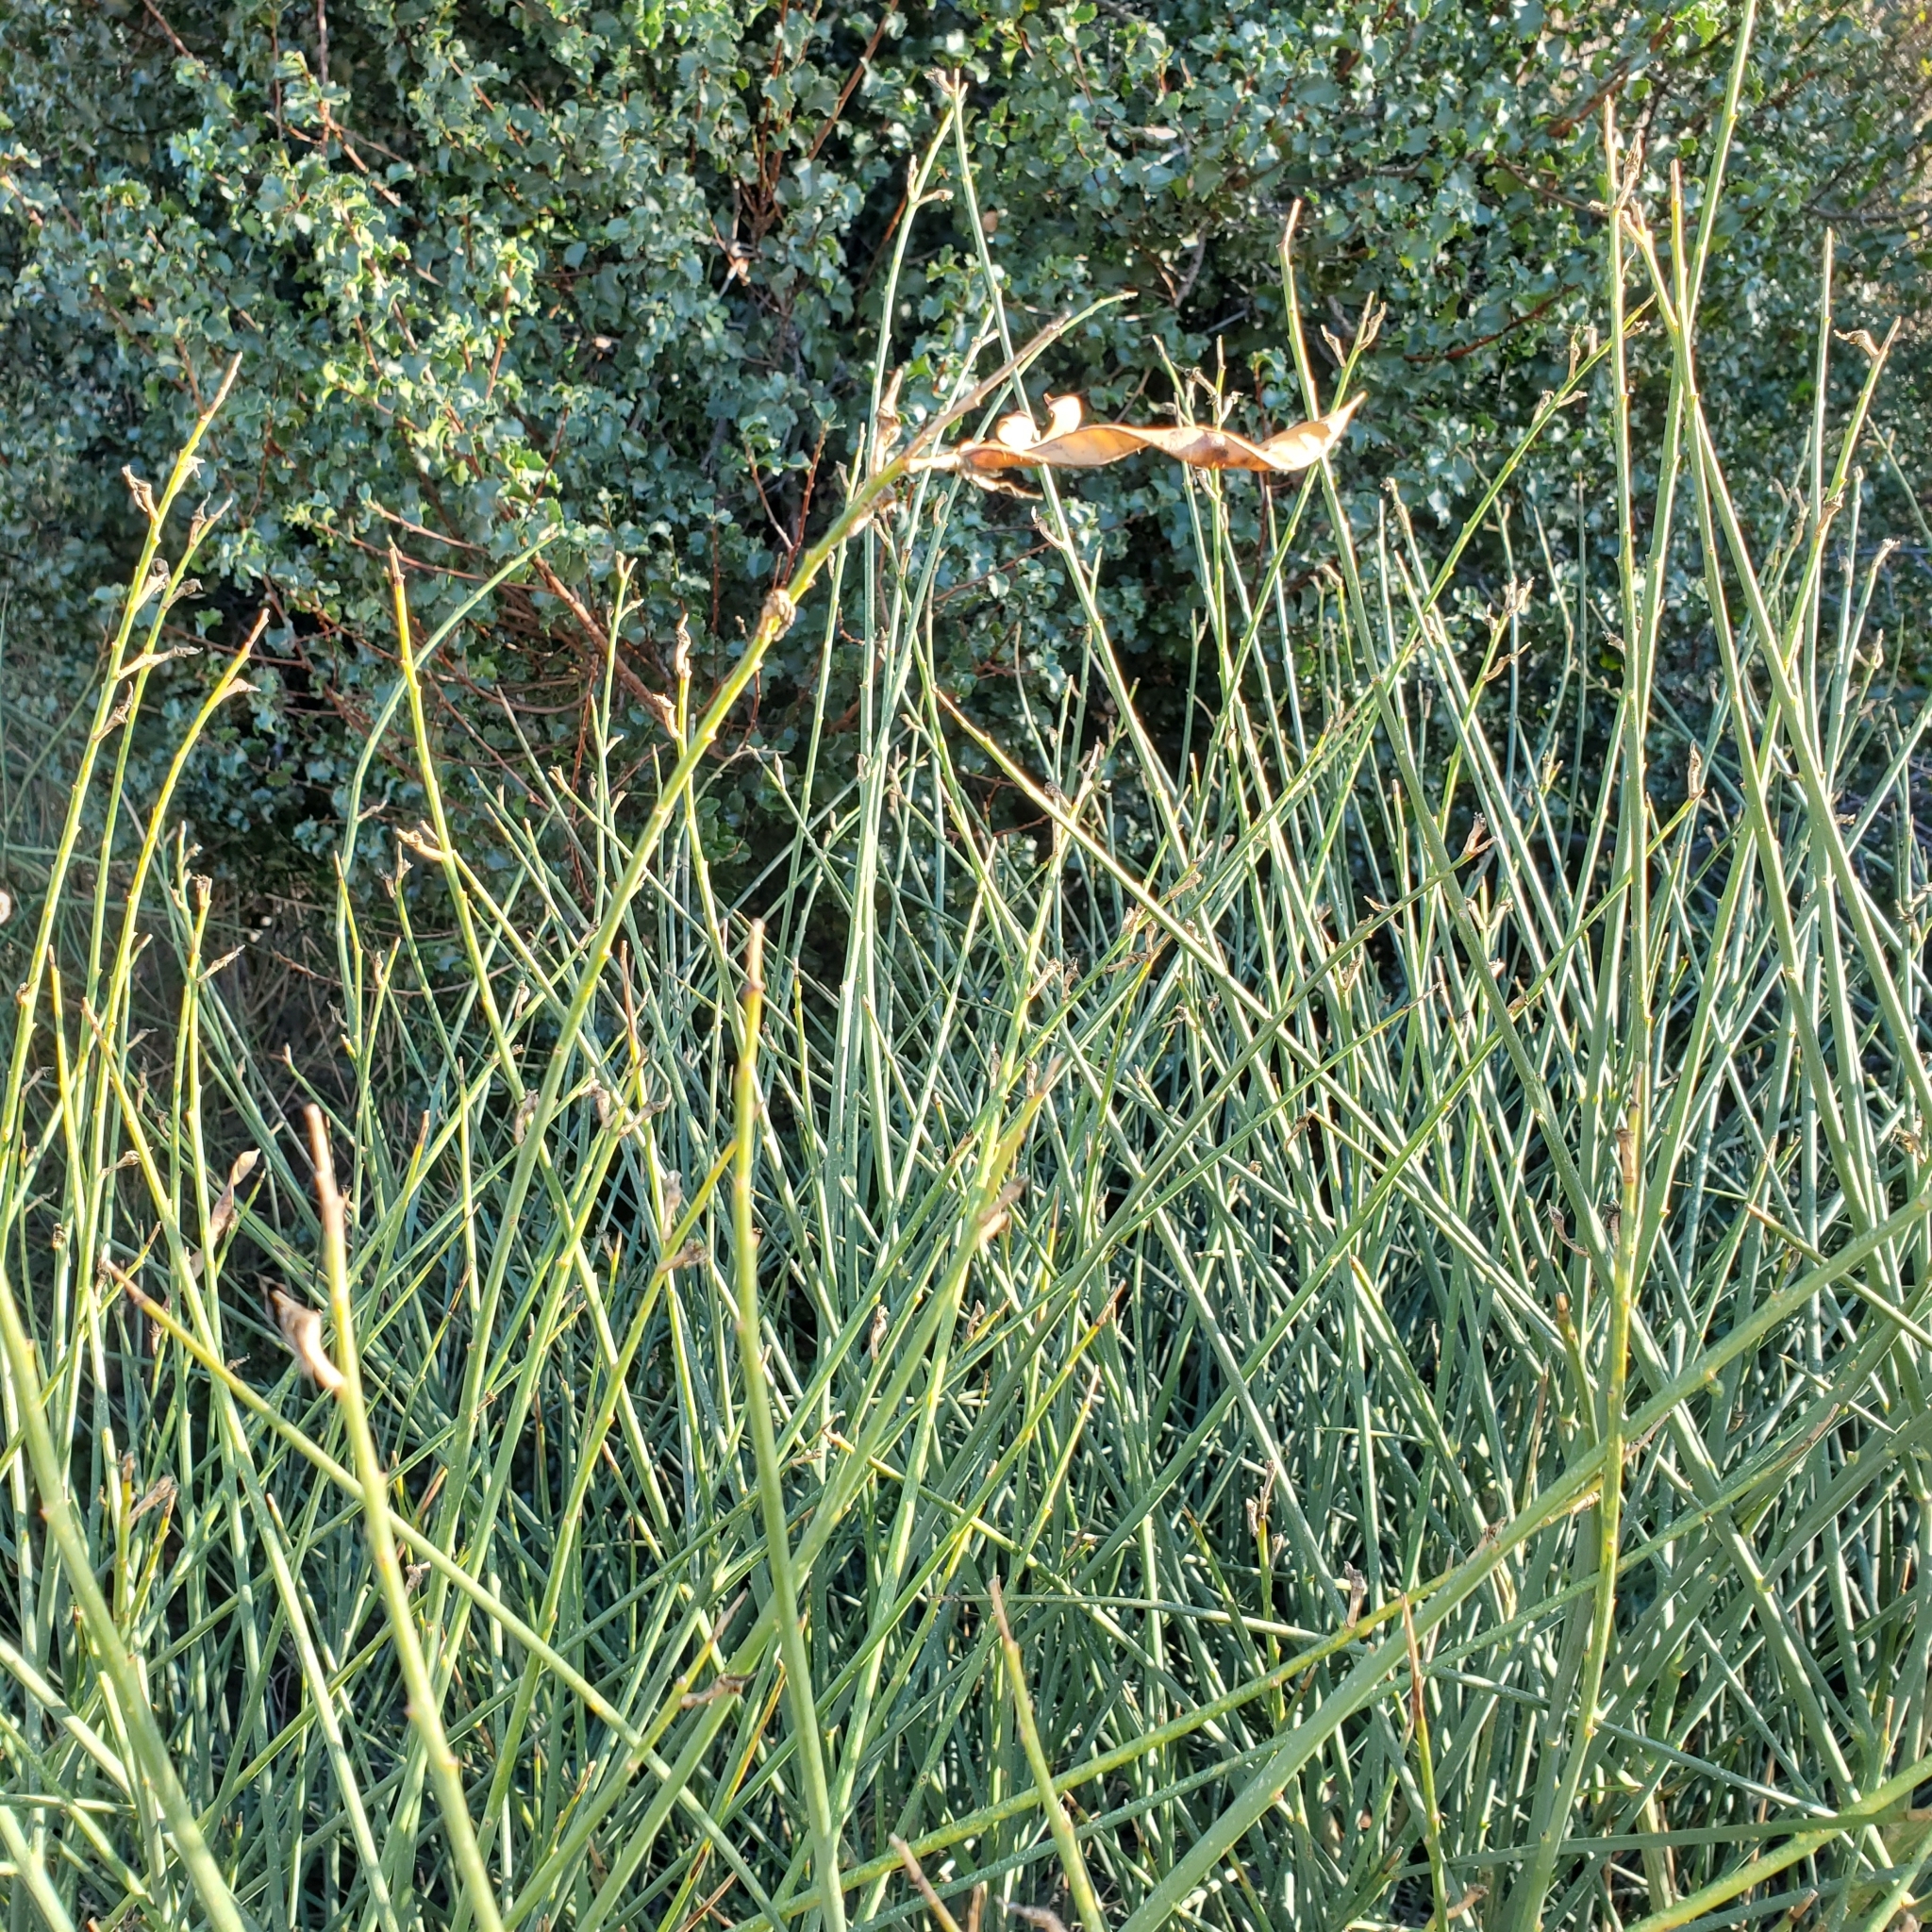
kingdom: Plantae
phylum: Tracheophyta
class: Magnoliopsida
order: Fabales
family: Fabaceae
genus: Spartium
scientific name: Spartium junceum
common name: Spanish broom
